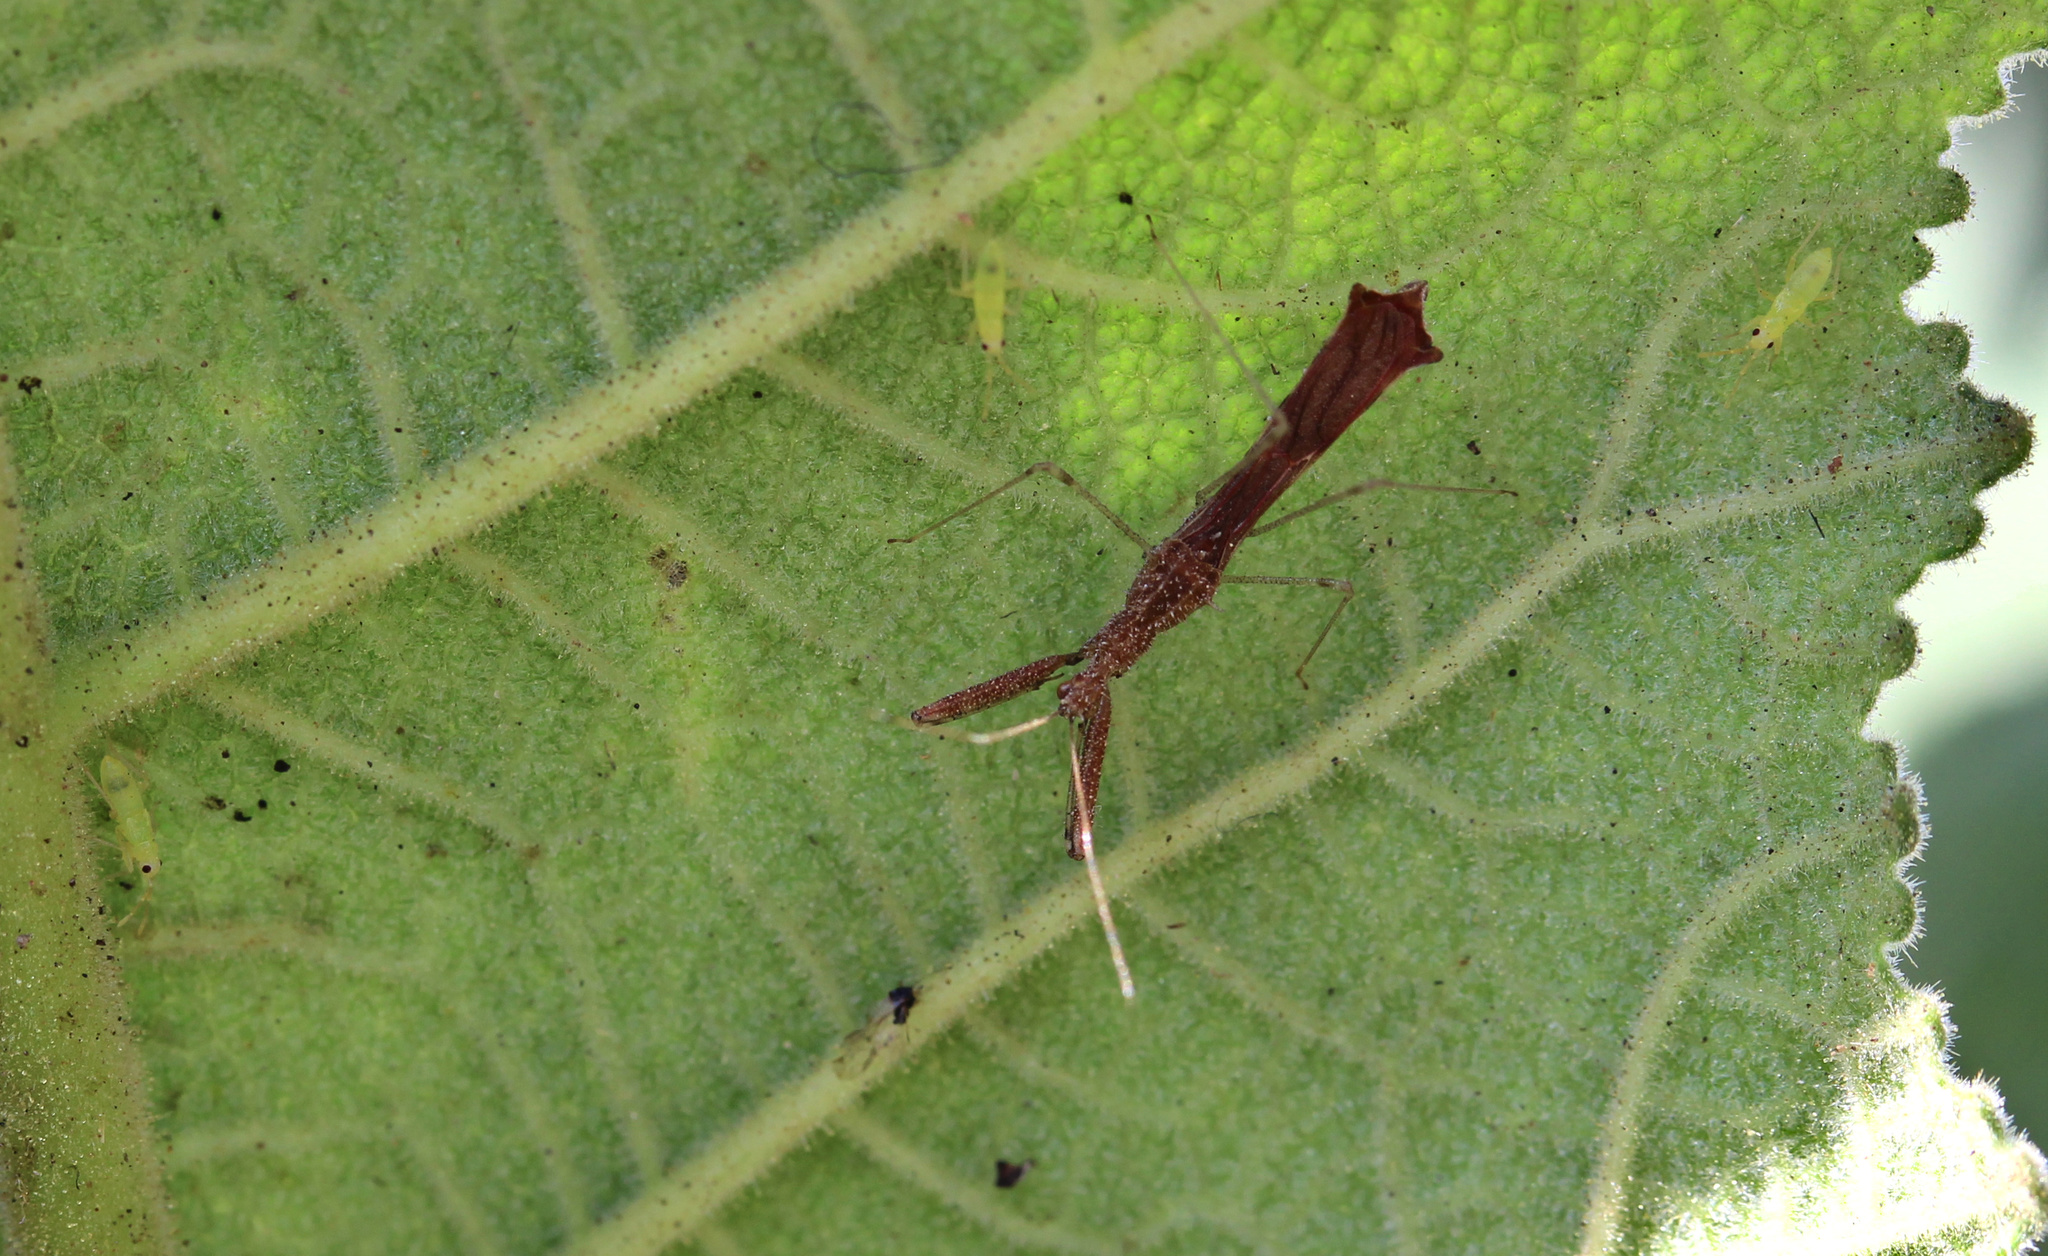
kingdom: Animalia
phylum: Arthropoda
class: Insecta
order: Hemiptera
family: Reduviidae
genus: Bactrodes
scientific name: Bactrodes spinulosus
